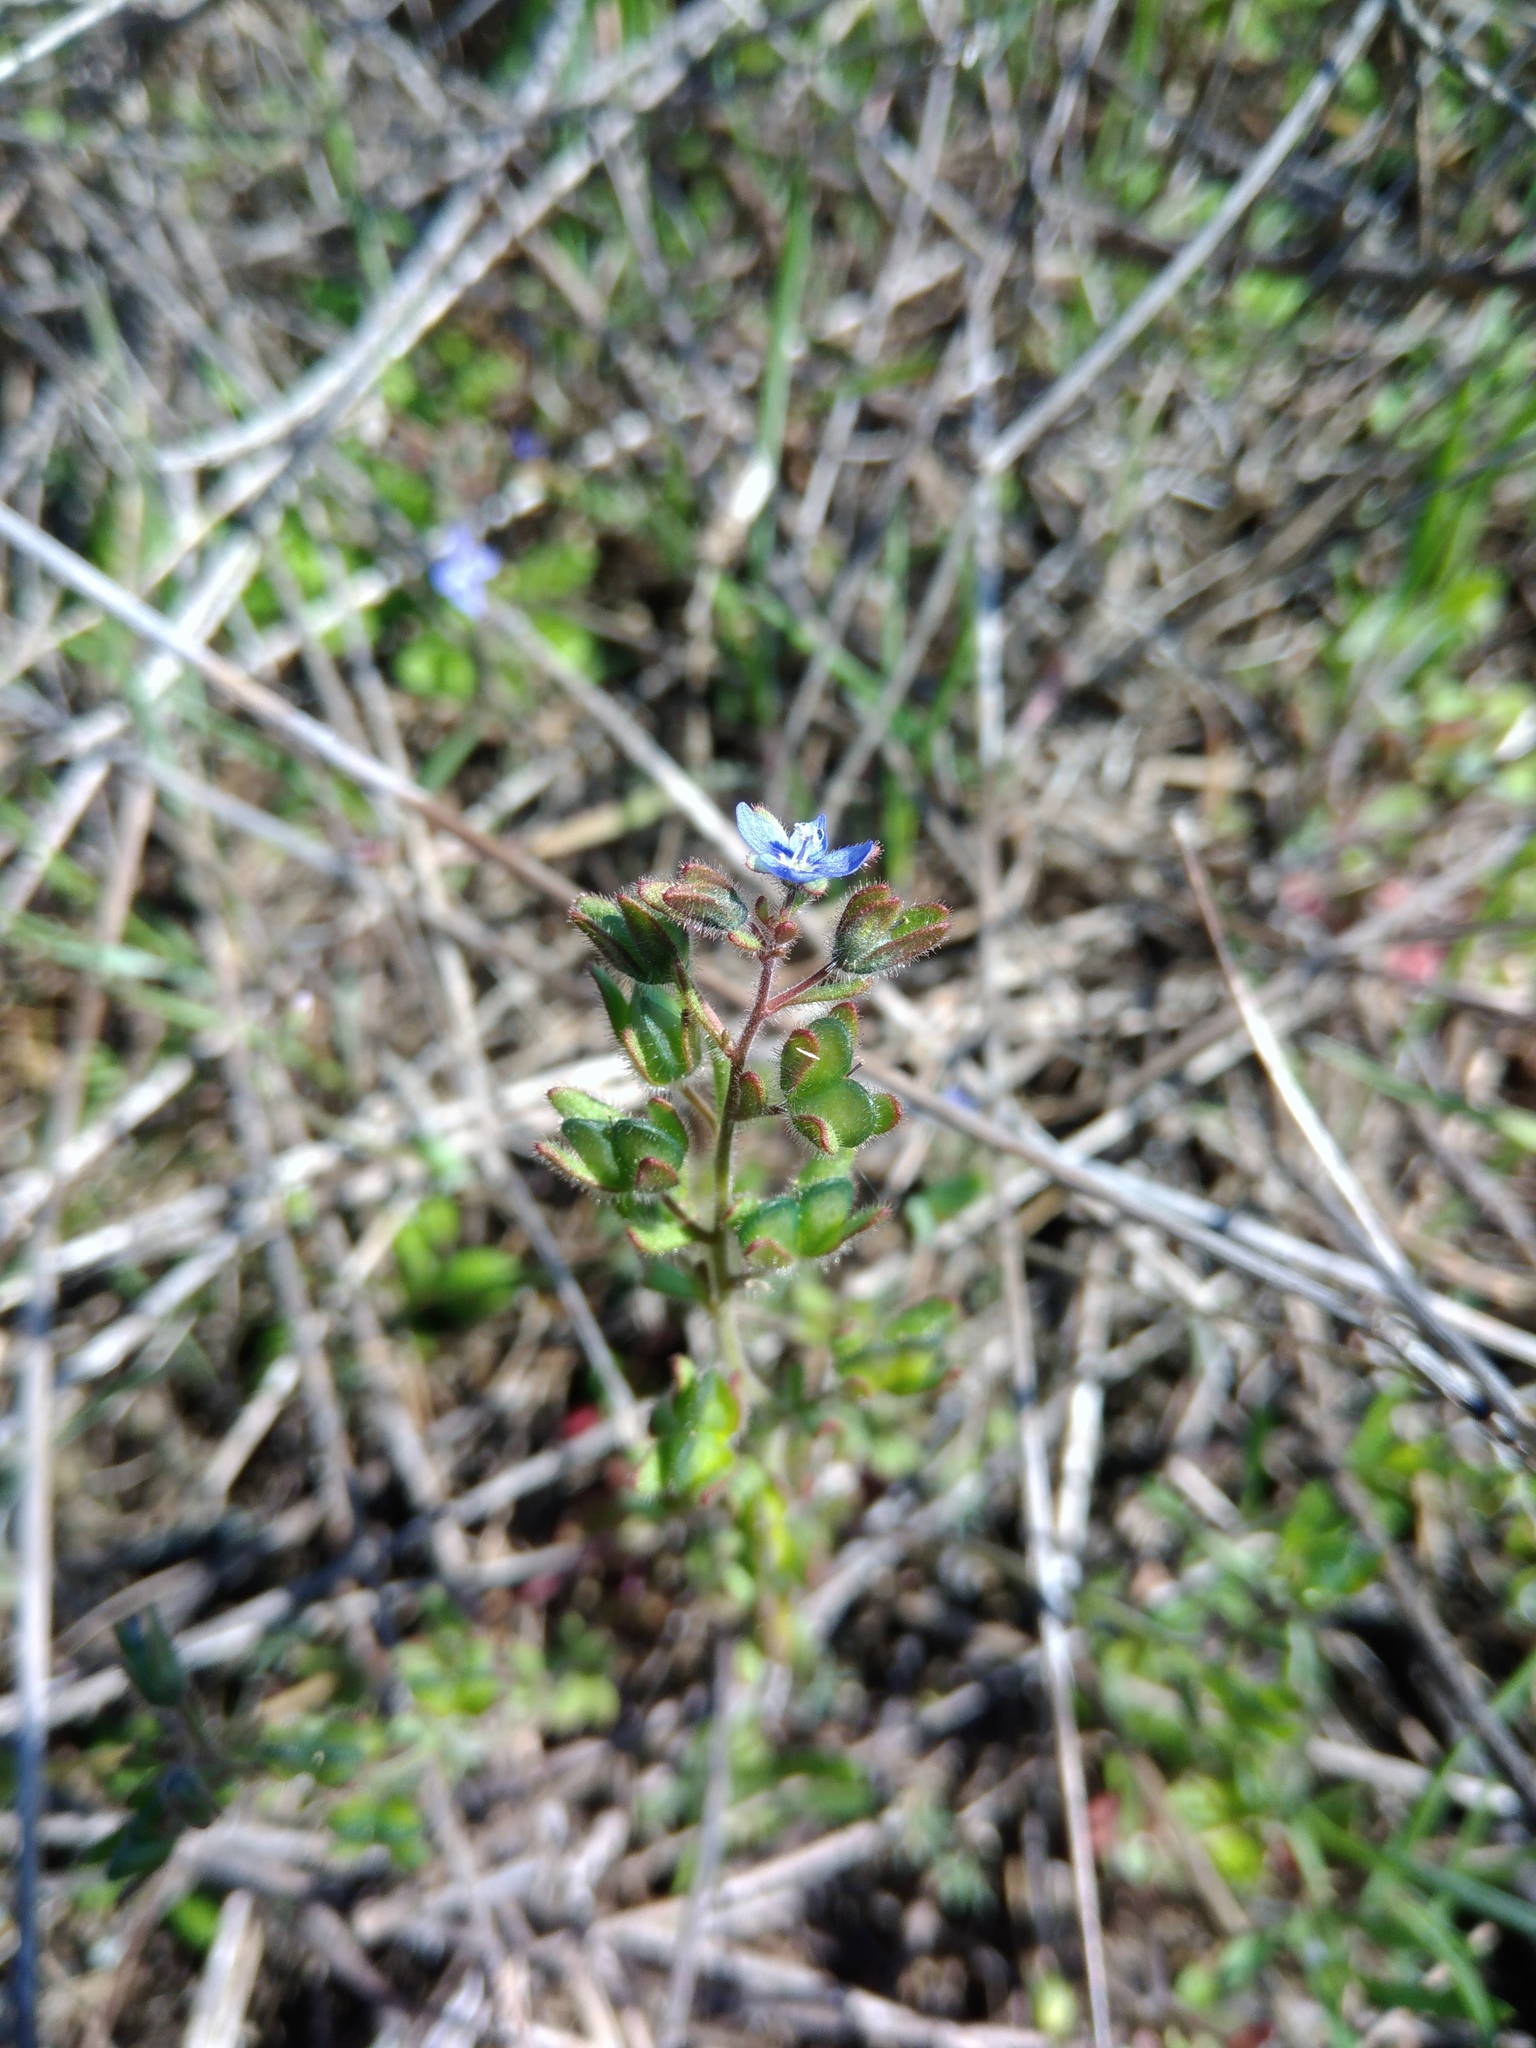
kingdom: Plantae
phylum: Tracheophyta
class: Magnoliopsida
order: Lamiales
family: Plantaginaceae
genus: Veronica
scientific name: Veronica triphyllos
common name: Fingered speedwell
